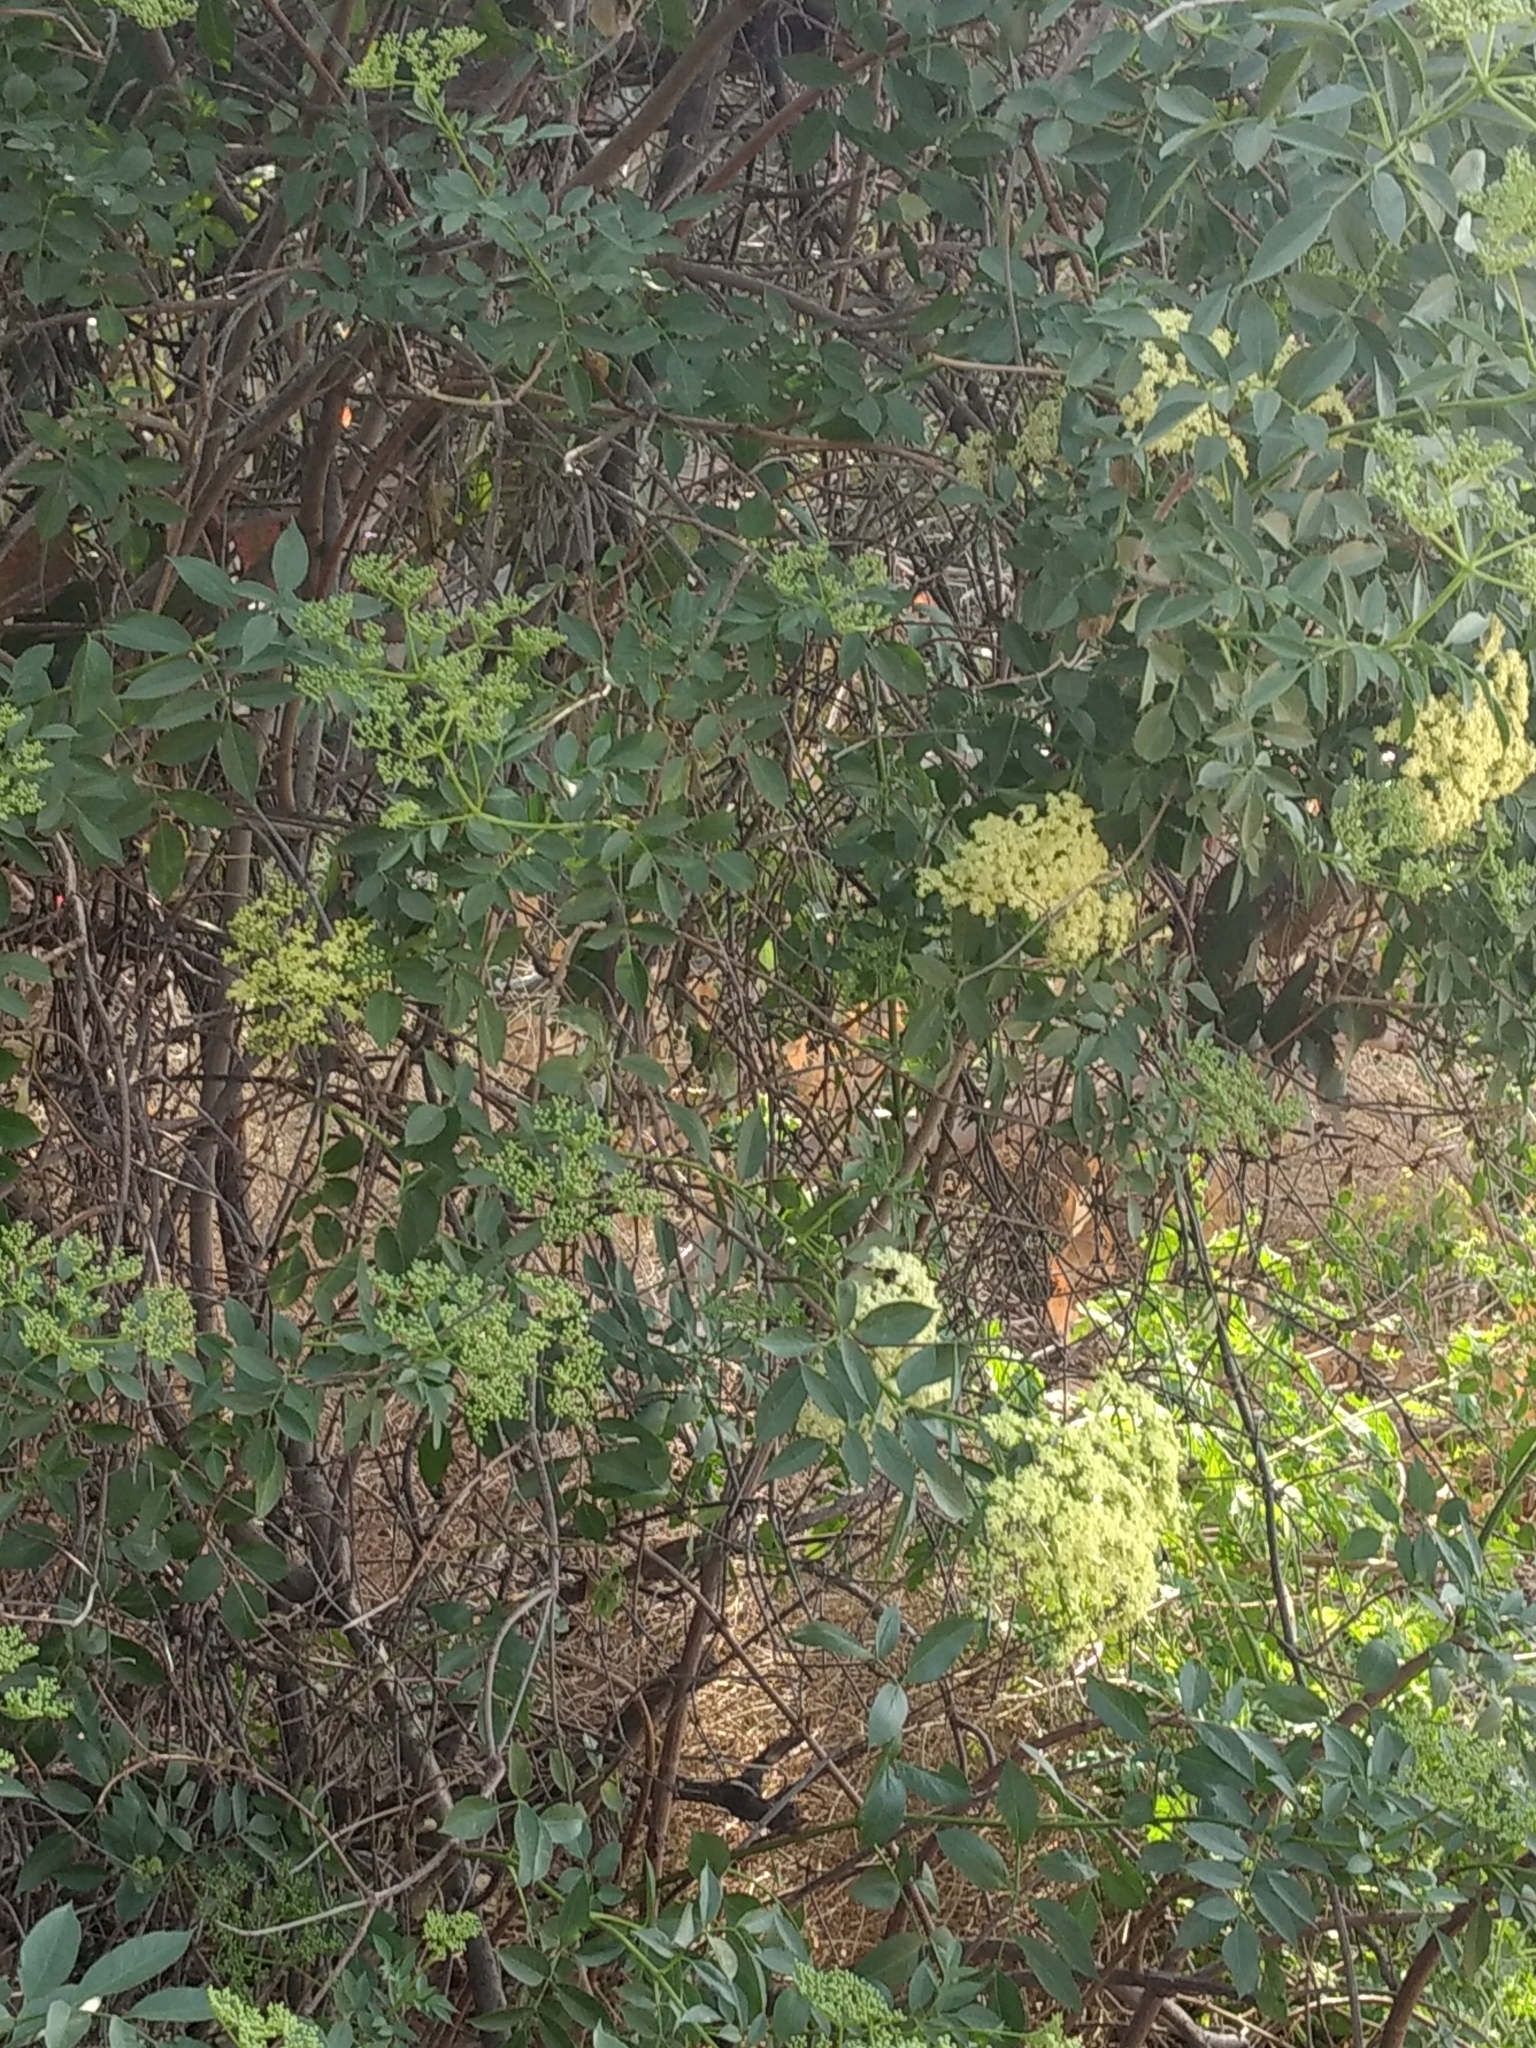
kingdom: Plantae
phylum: Tracheophyta
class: Magnoliopsida
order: Dipsacales
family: Viburnaceae
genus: Sambucus
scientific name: Sambucus cerulea
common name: Blue elder
